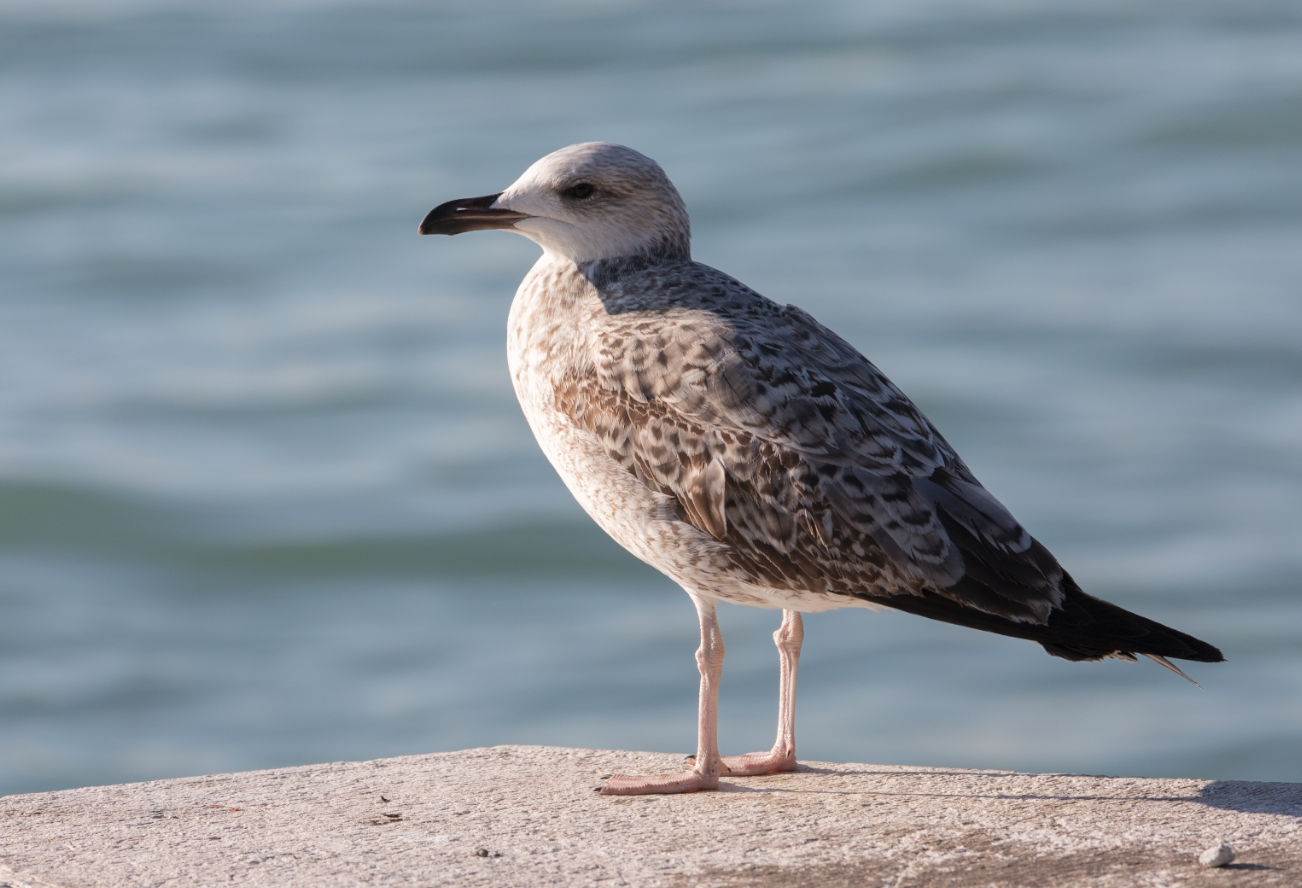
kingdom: Animalia
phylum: Chordata
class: Aves
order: Charadriiformes
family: Laridae
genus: Larus
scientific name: Larus michahellis
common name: Yellow-legged gull
